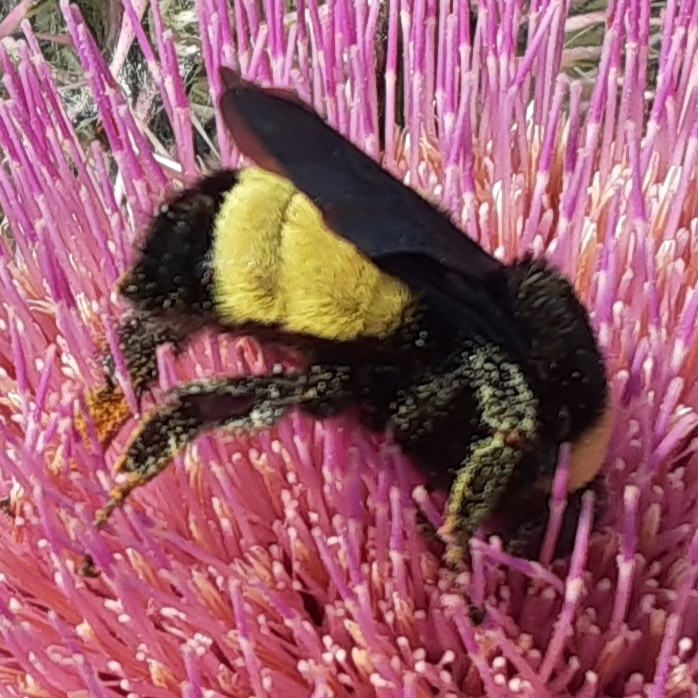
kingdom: Animalia
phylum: Arthropoda
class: Insecta
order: Hymenoptera
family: Apidae
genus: Bombus
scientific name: Bombus pensylvanicus
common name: Bumble bee
